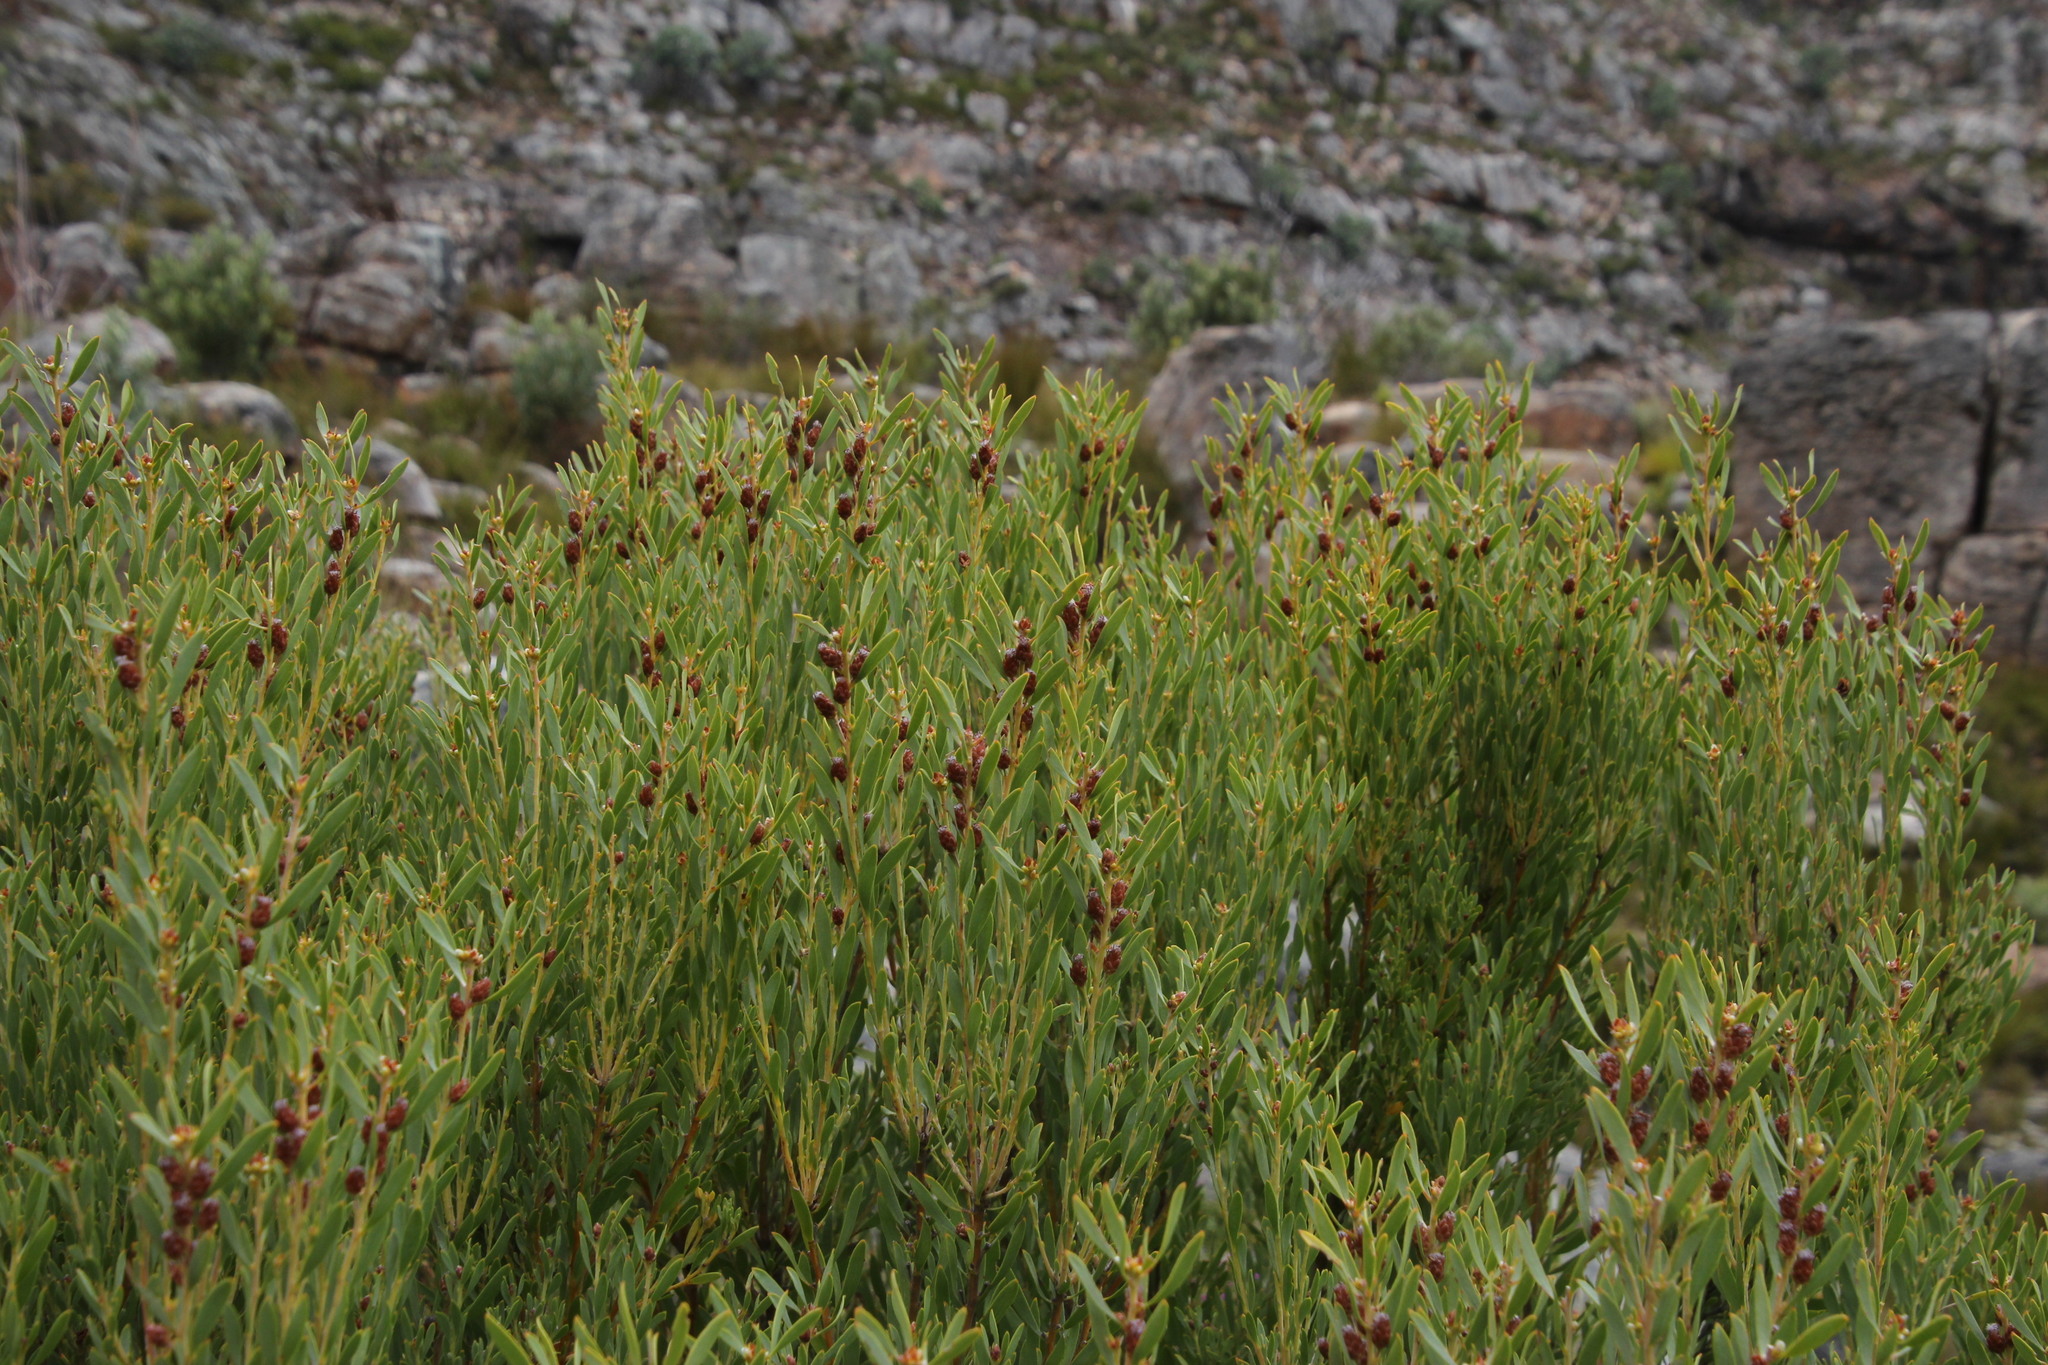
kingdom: Plantae
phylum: Tracheophyta
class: Magnoliopsida
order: Proteales
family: Proteaceae
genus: Leucadendron
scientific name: Leucadendron rubrum
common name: Spinning top
